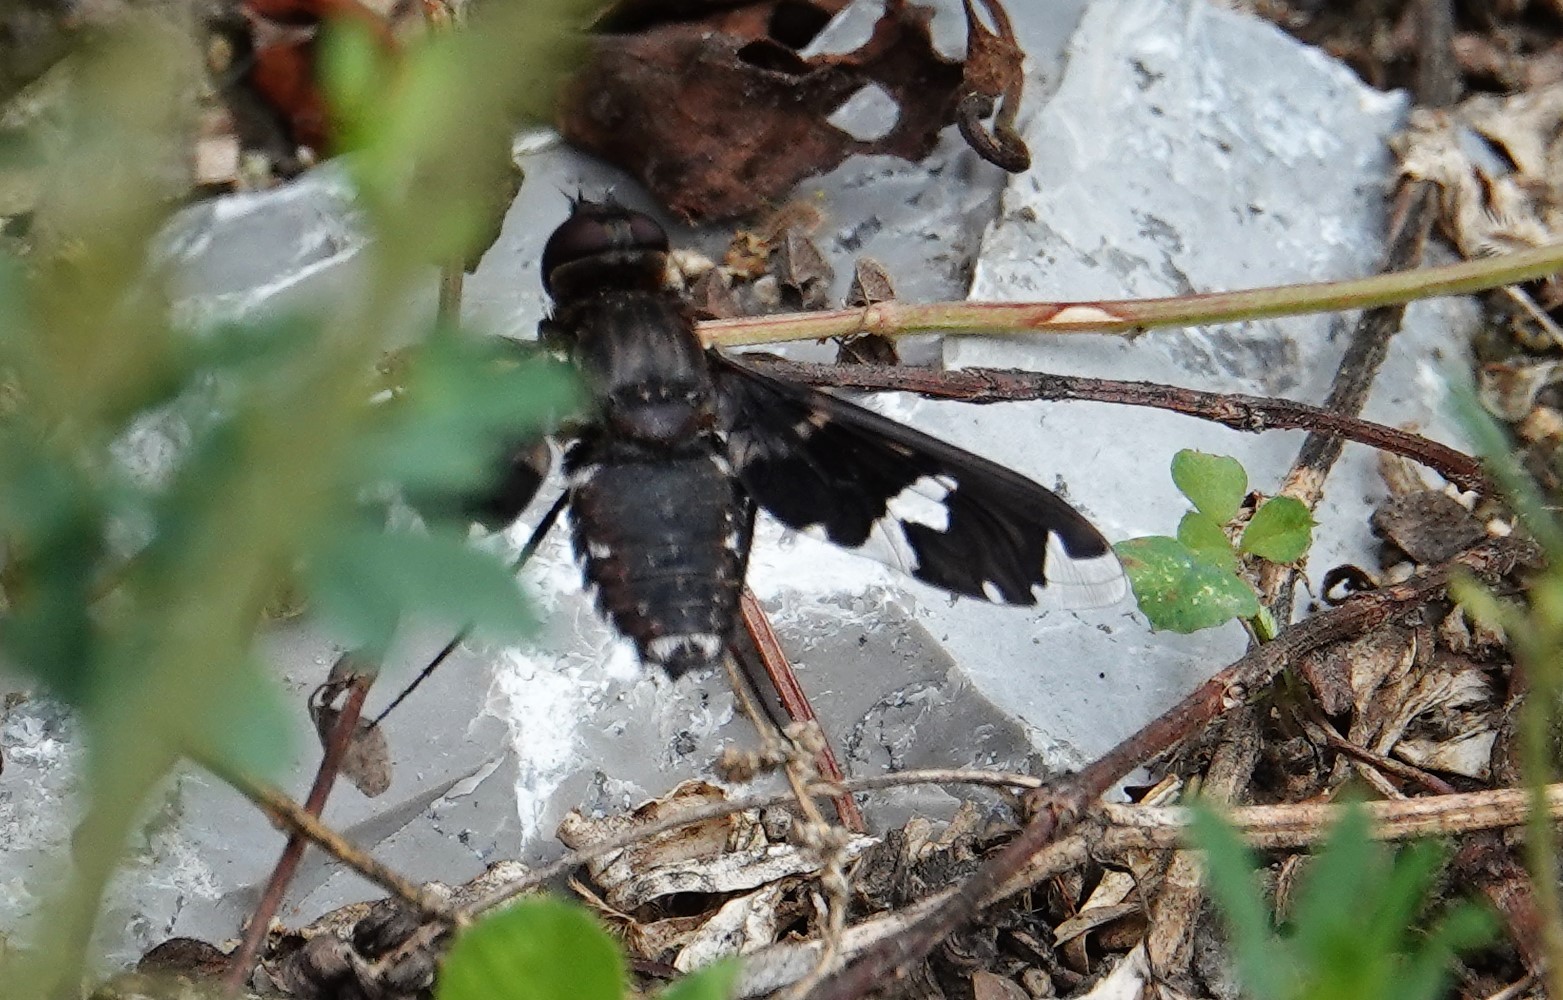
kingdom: Animalia
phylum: Arthropoda
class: Insecta
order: Diptera
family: Bombyliidae
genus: Exoprosopa
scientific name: Exoprosopa decora
